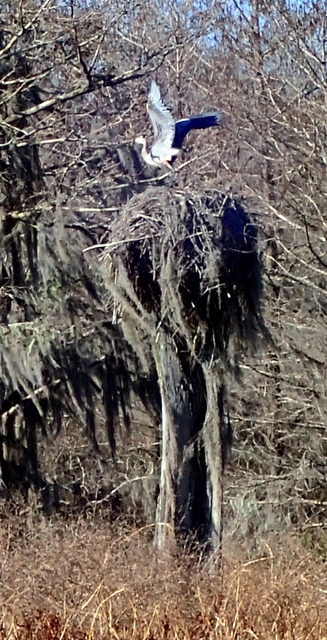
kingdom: Animalia
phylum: Chordata
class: Aves
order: Pelecaniformes
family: Ardeidae
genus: Ardea
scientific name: Ardea herodias
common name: Great blue heron
